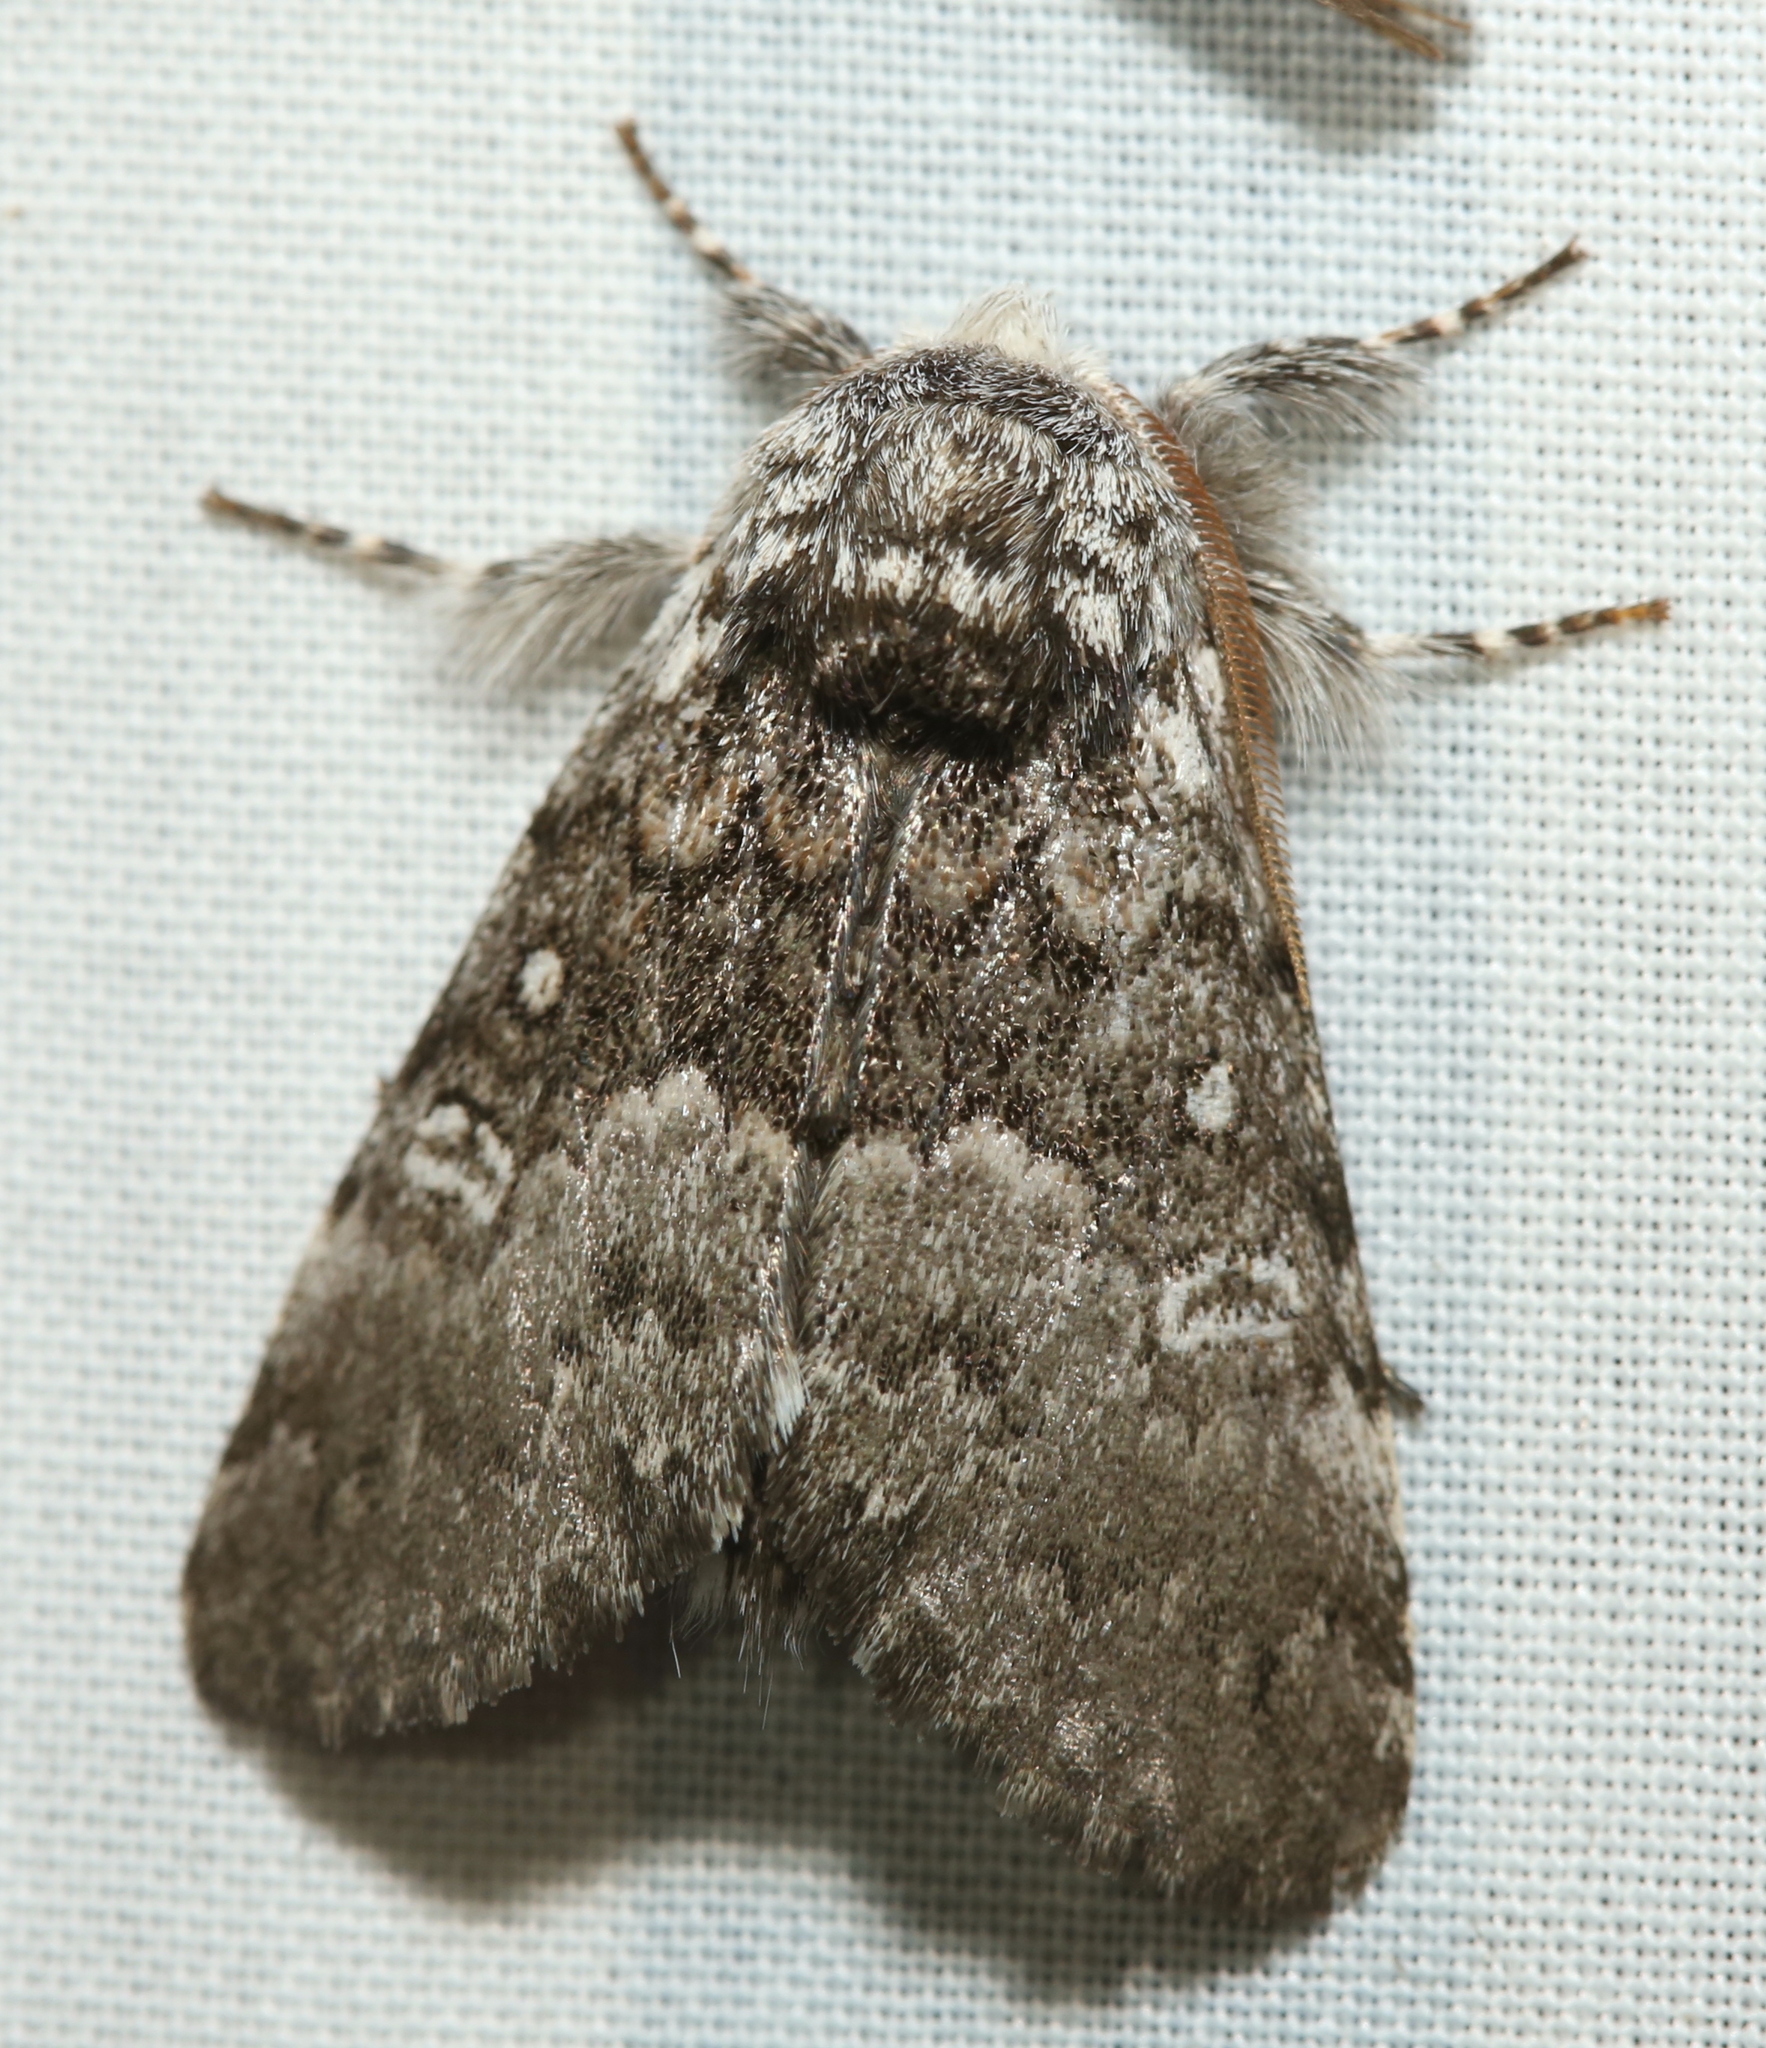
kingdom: Animalia
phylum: Arthropoda
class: Insecta
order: Lepidoptera
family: Noctuidae
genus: Colocasia
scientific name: Colocasia propinquilinea
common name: Close-banded demas
